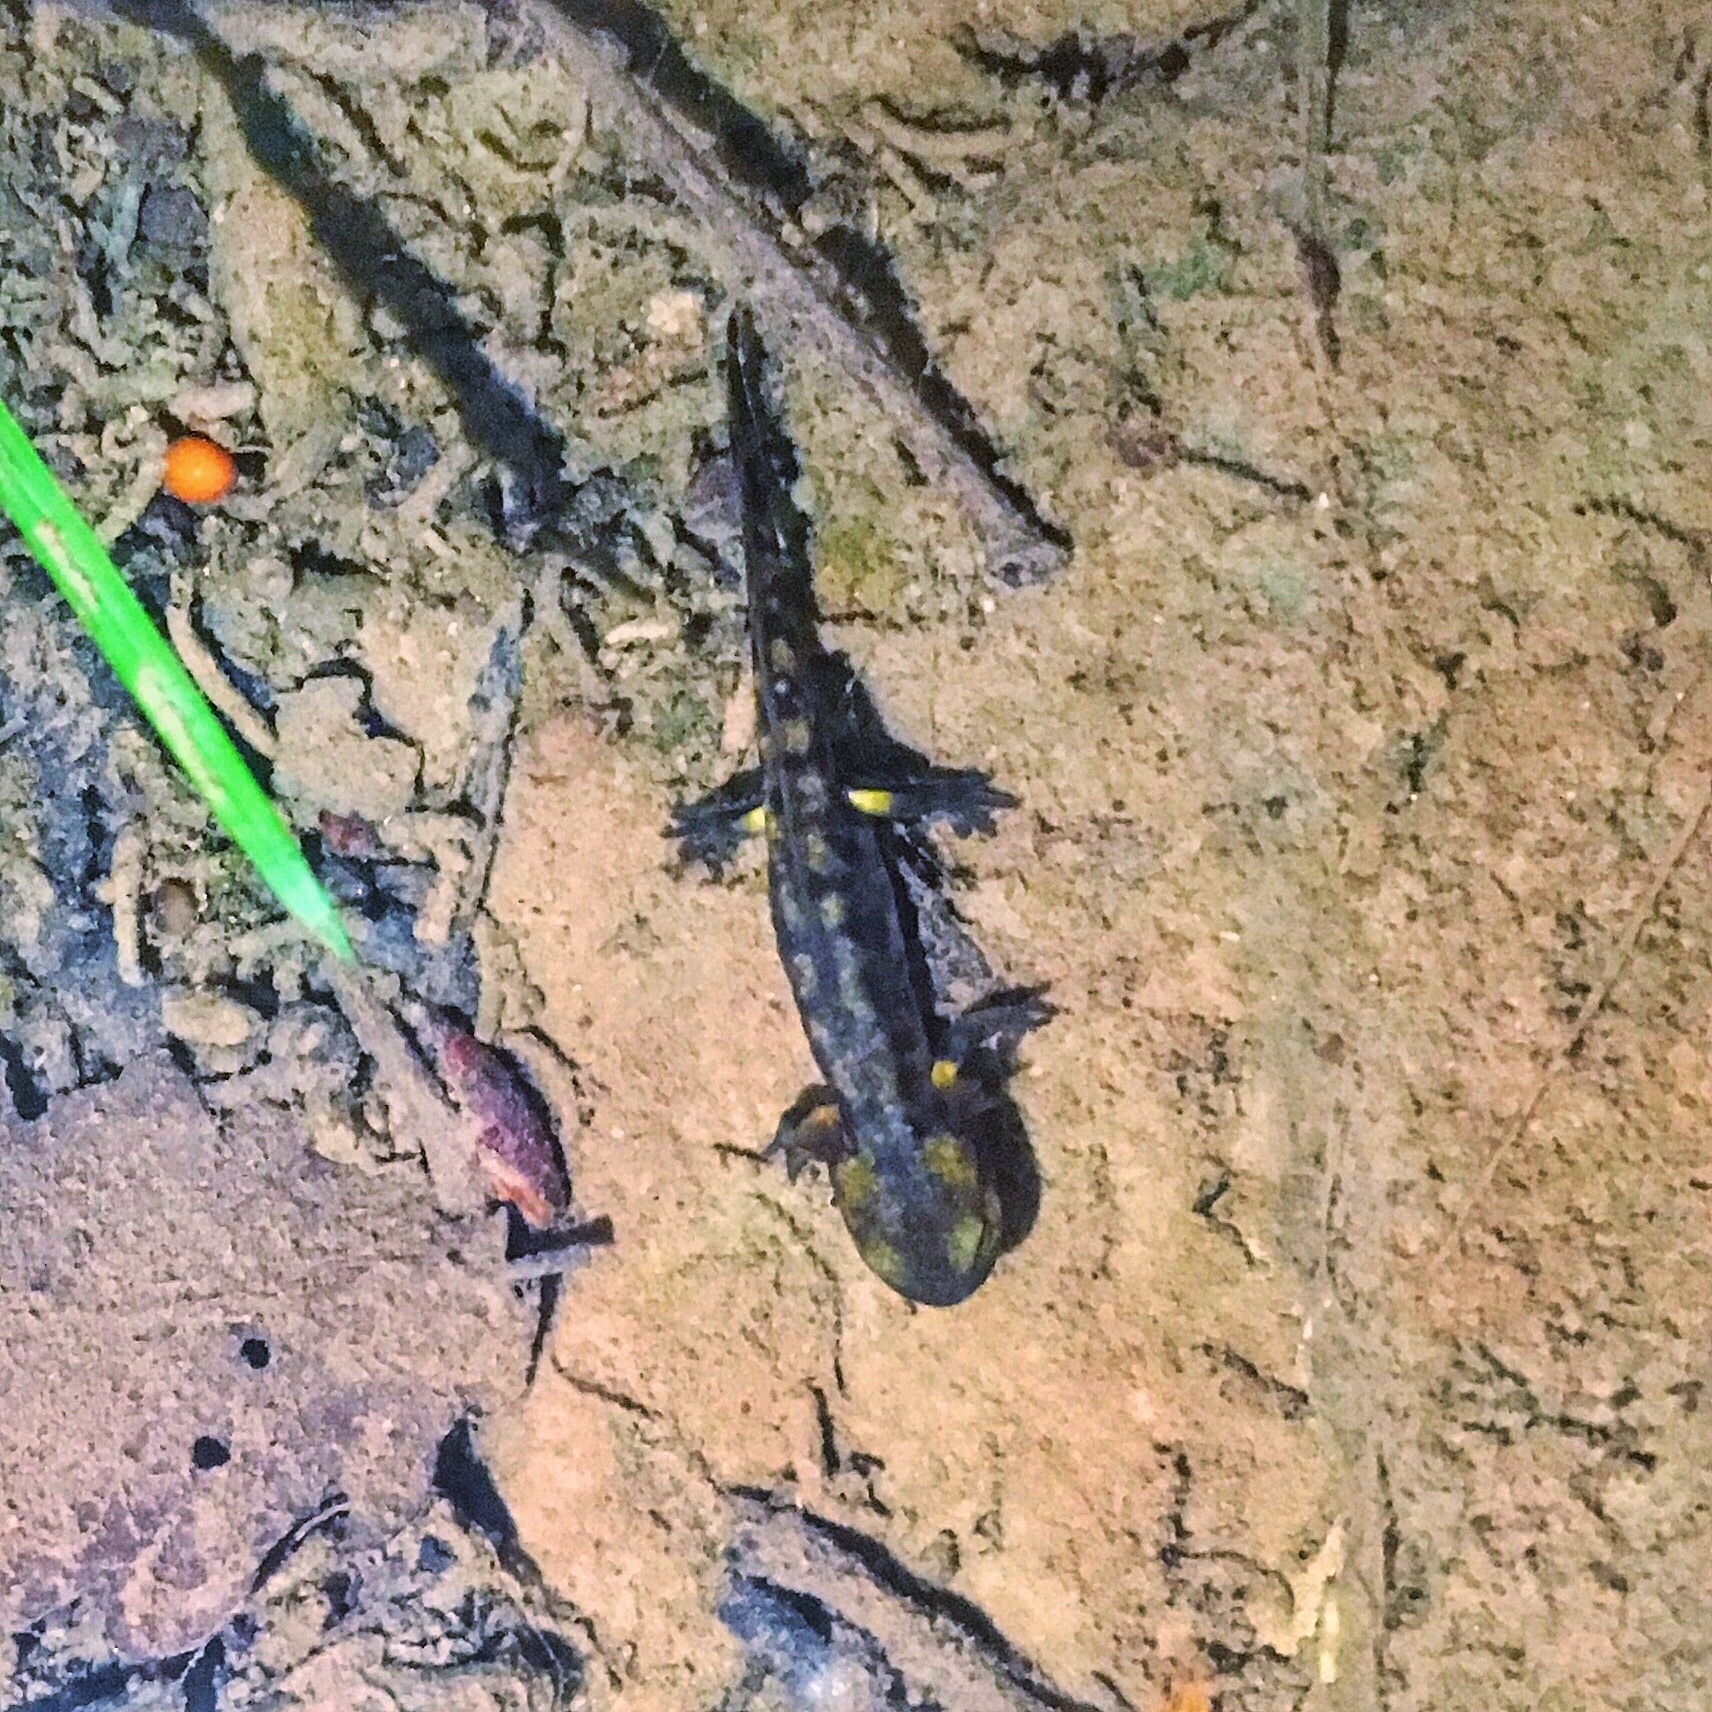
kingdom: Animalia
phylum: Chordata
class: Amphibia
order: Caudata
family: Salamandridae
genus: Salamandra
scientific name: Salamandra salamandra
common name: Fire salamander
